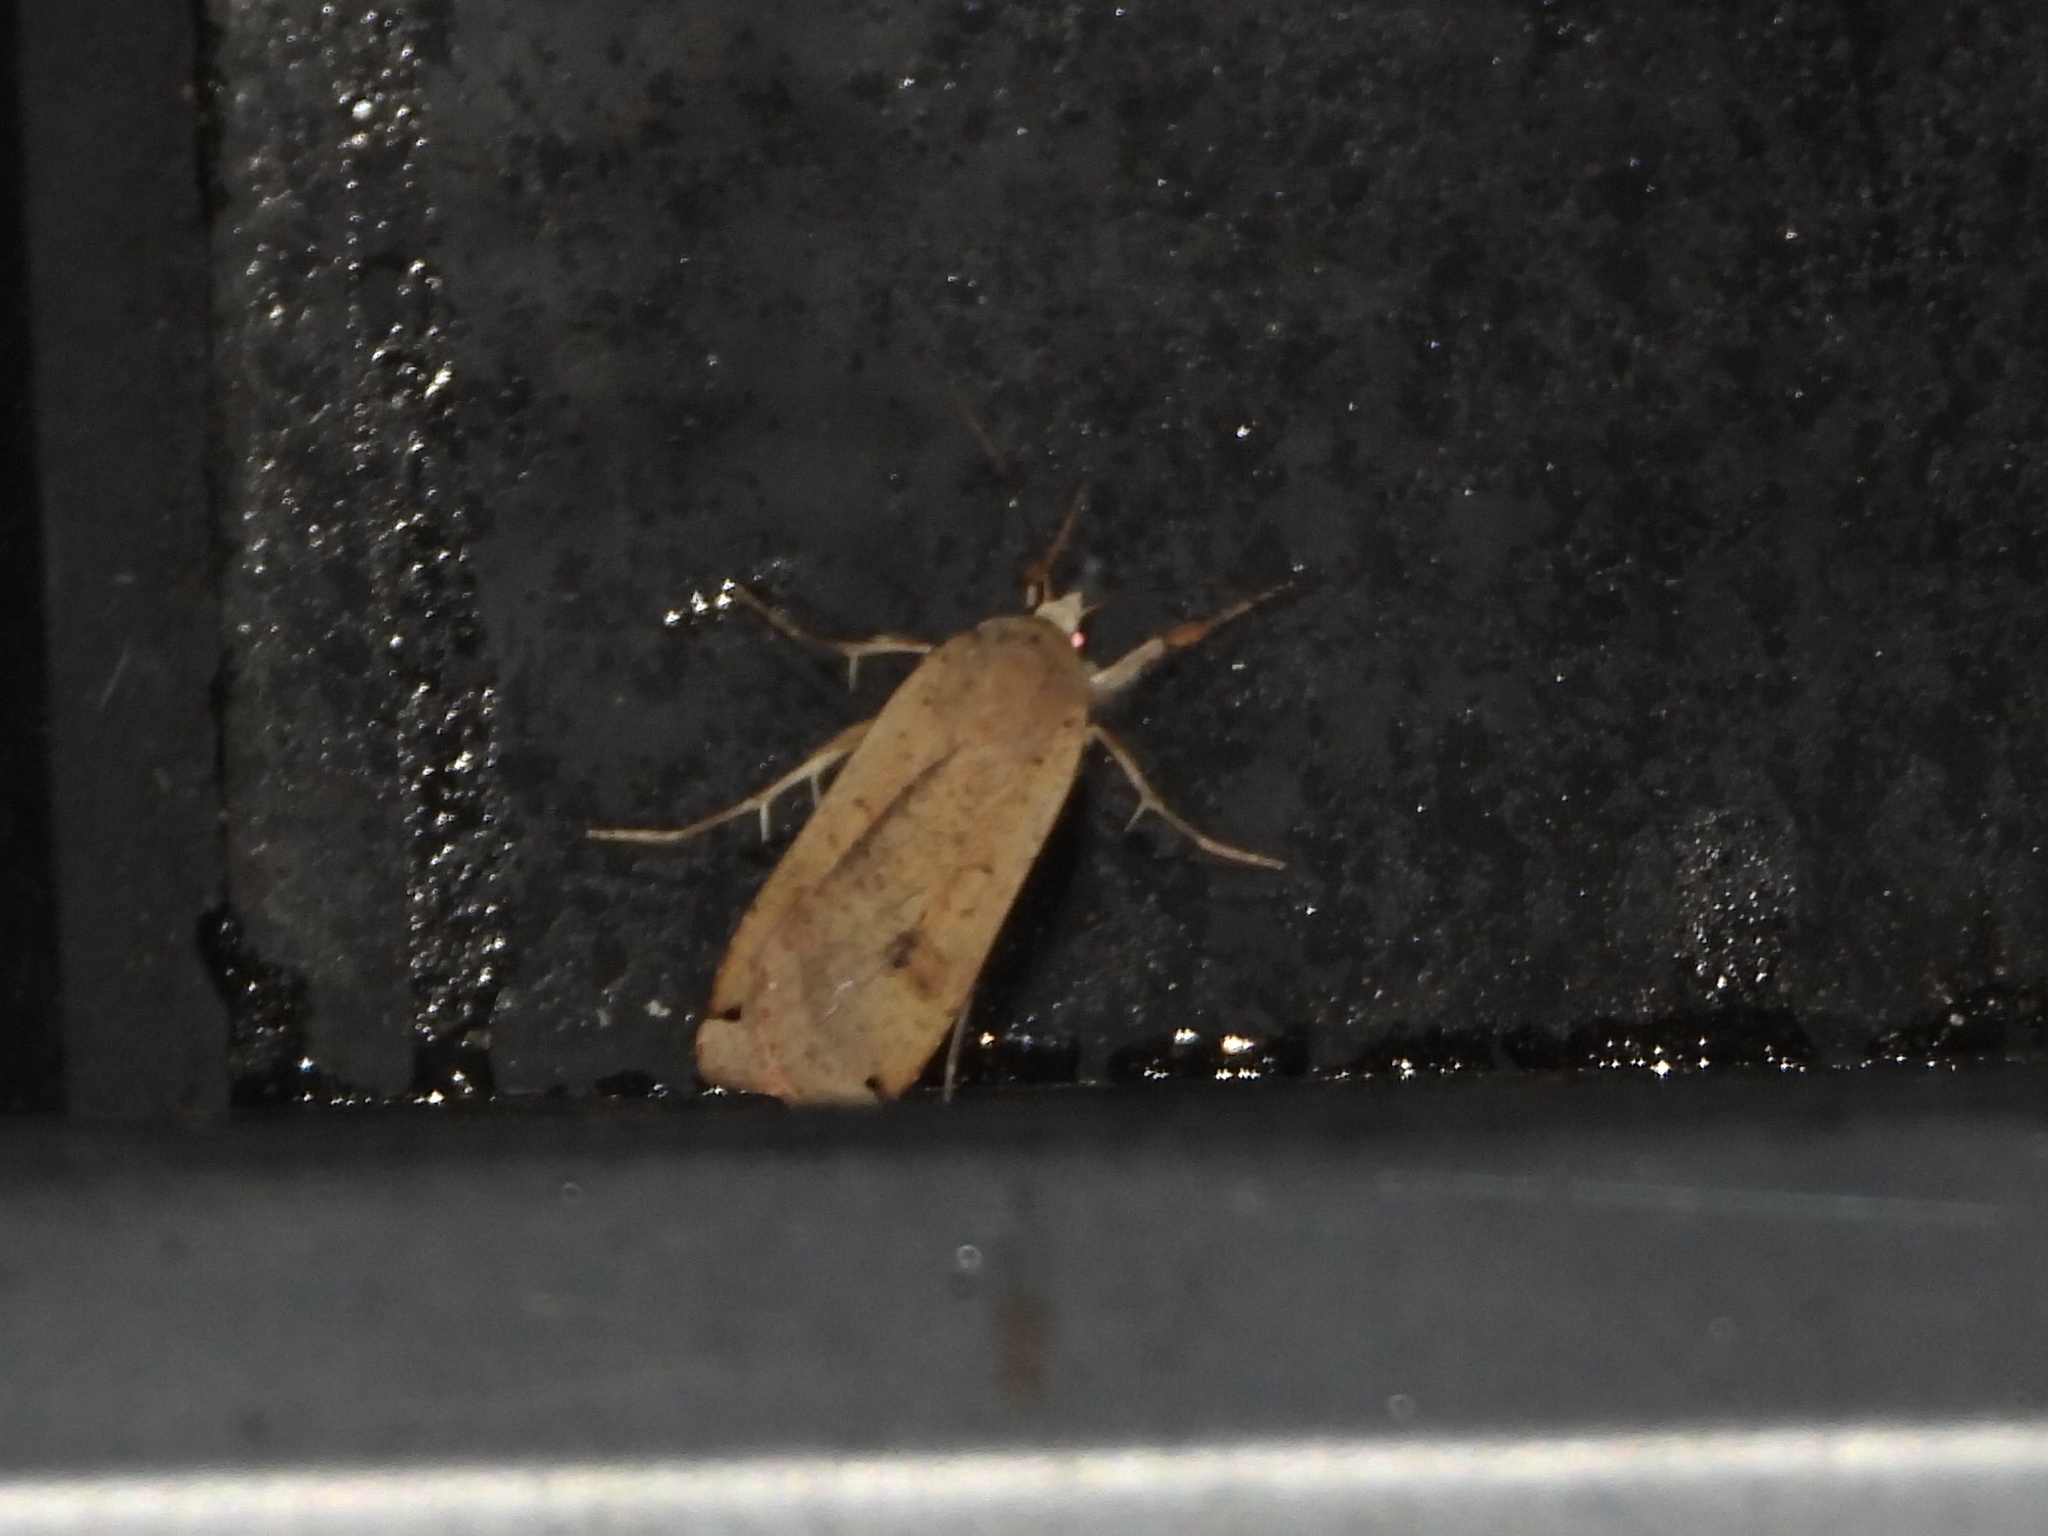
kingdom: Animalia
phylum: Arthropoda
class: Insecta
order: Lepidoptera
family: Noctuidae
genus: Noctua
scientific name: Noctua pronuba
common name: Large yellow underwing
